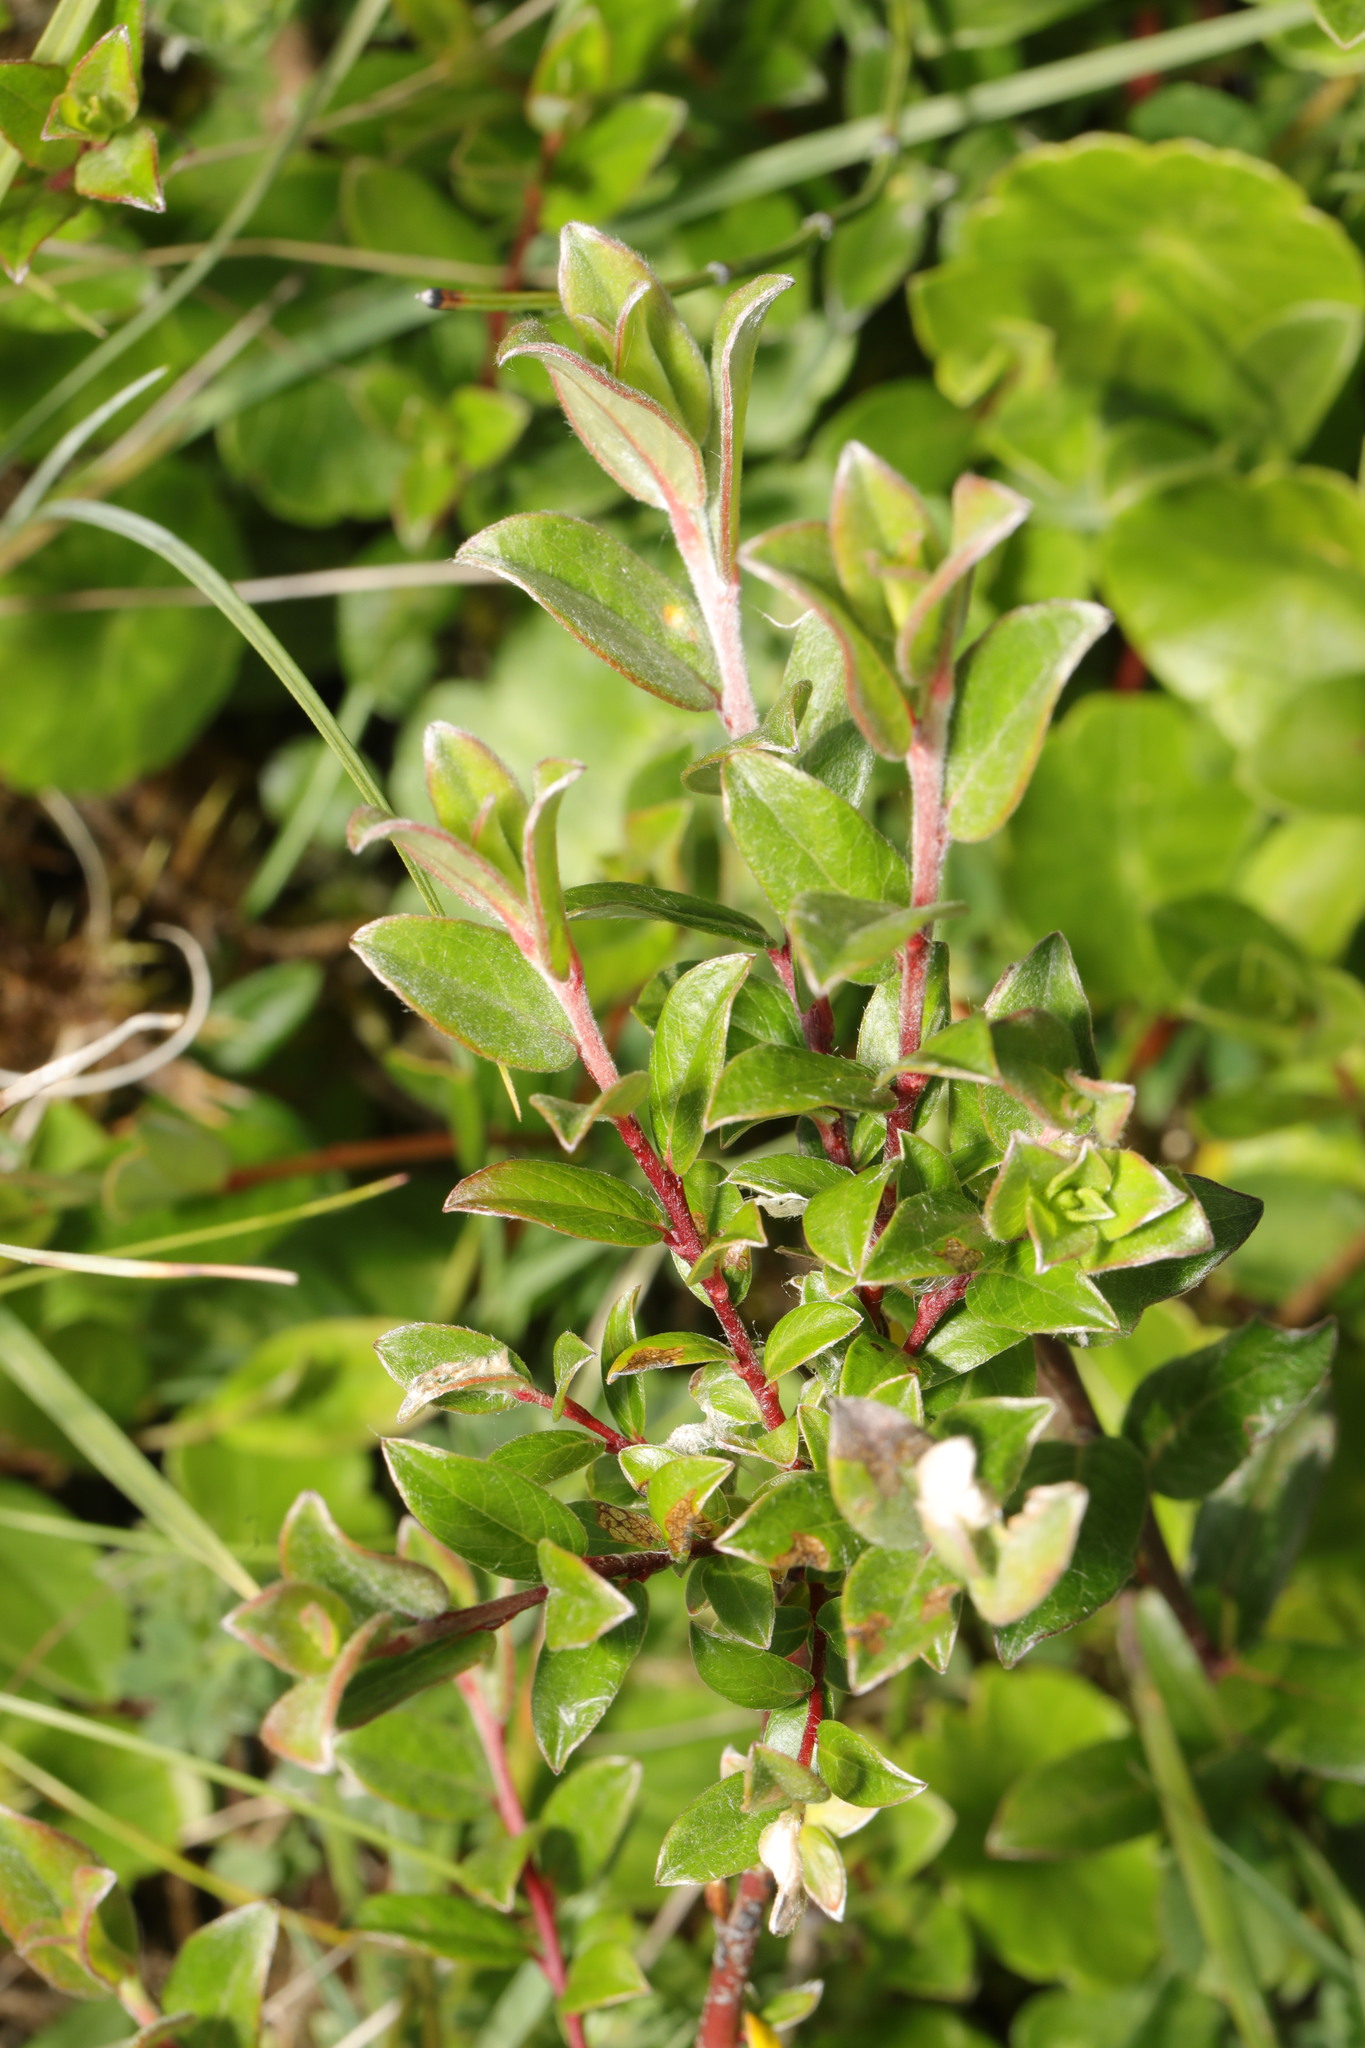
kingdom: Plantae
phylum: Tracheophyta
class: Magnoliopsida
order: Malpighiales
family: Salicaceae
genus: Salix
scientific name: Salix repens
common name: Creeping willow
